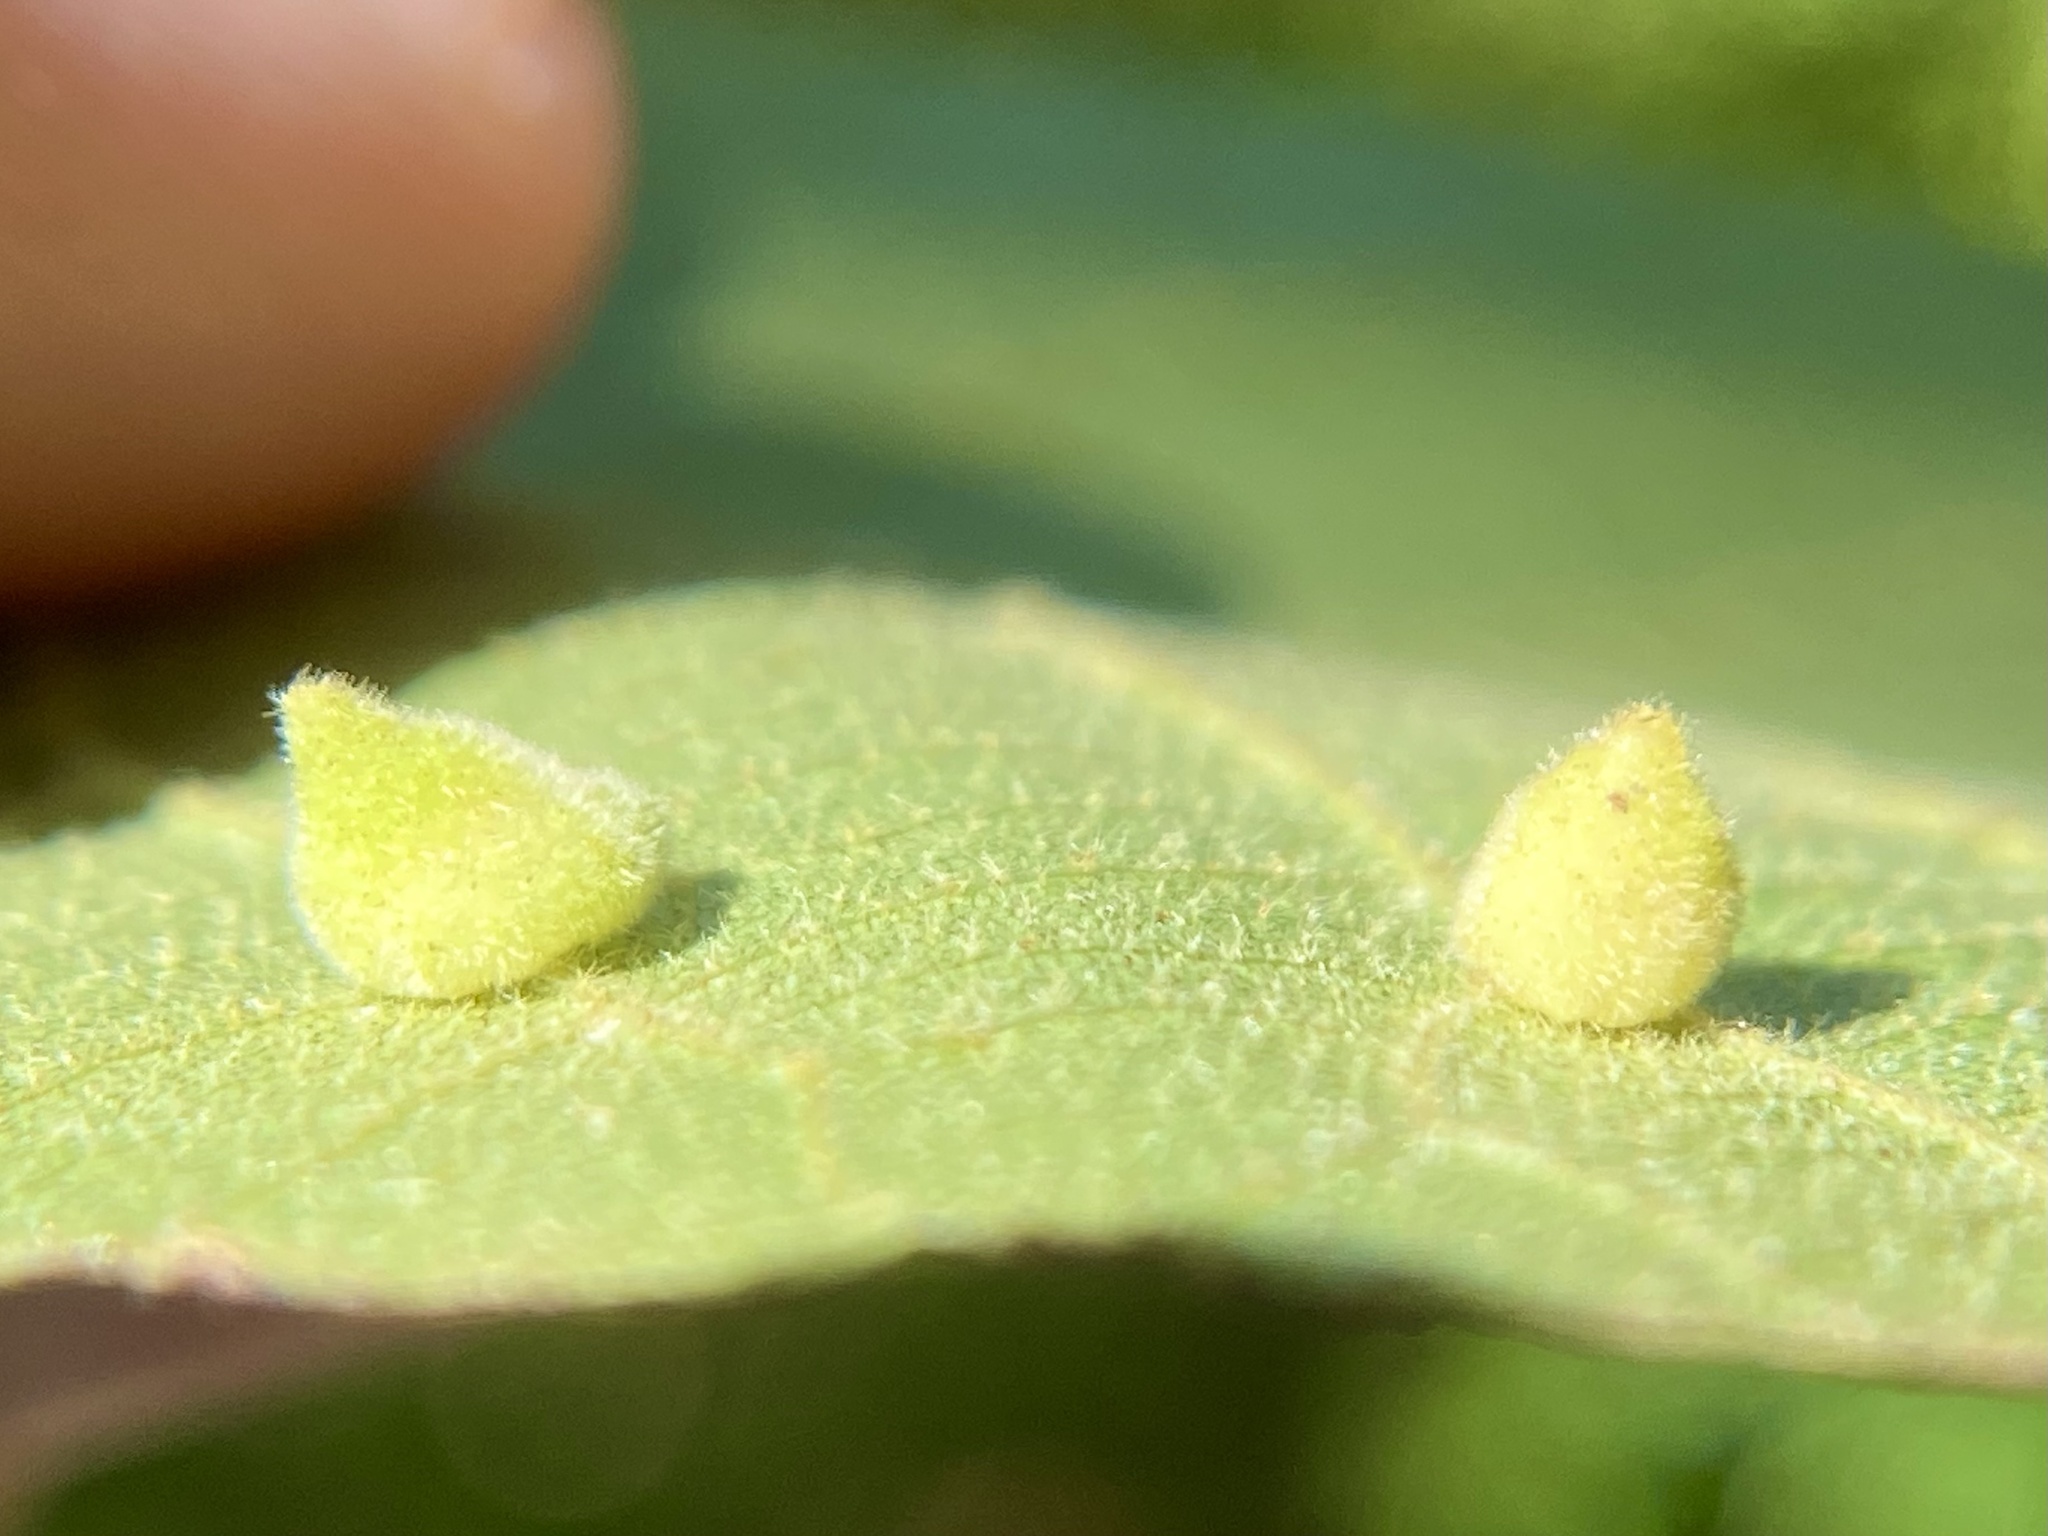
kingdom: Animalia
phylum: Arthropoda
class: Insecta
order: Diptera
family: Cecidomyiidae
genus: Caryomyia
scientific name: Caryomyia persicoides
